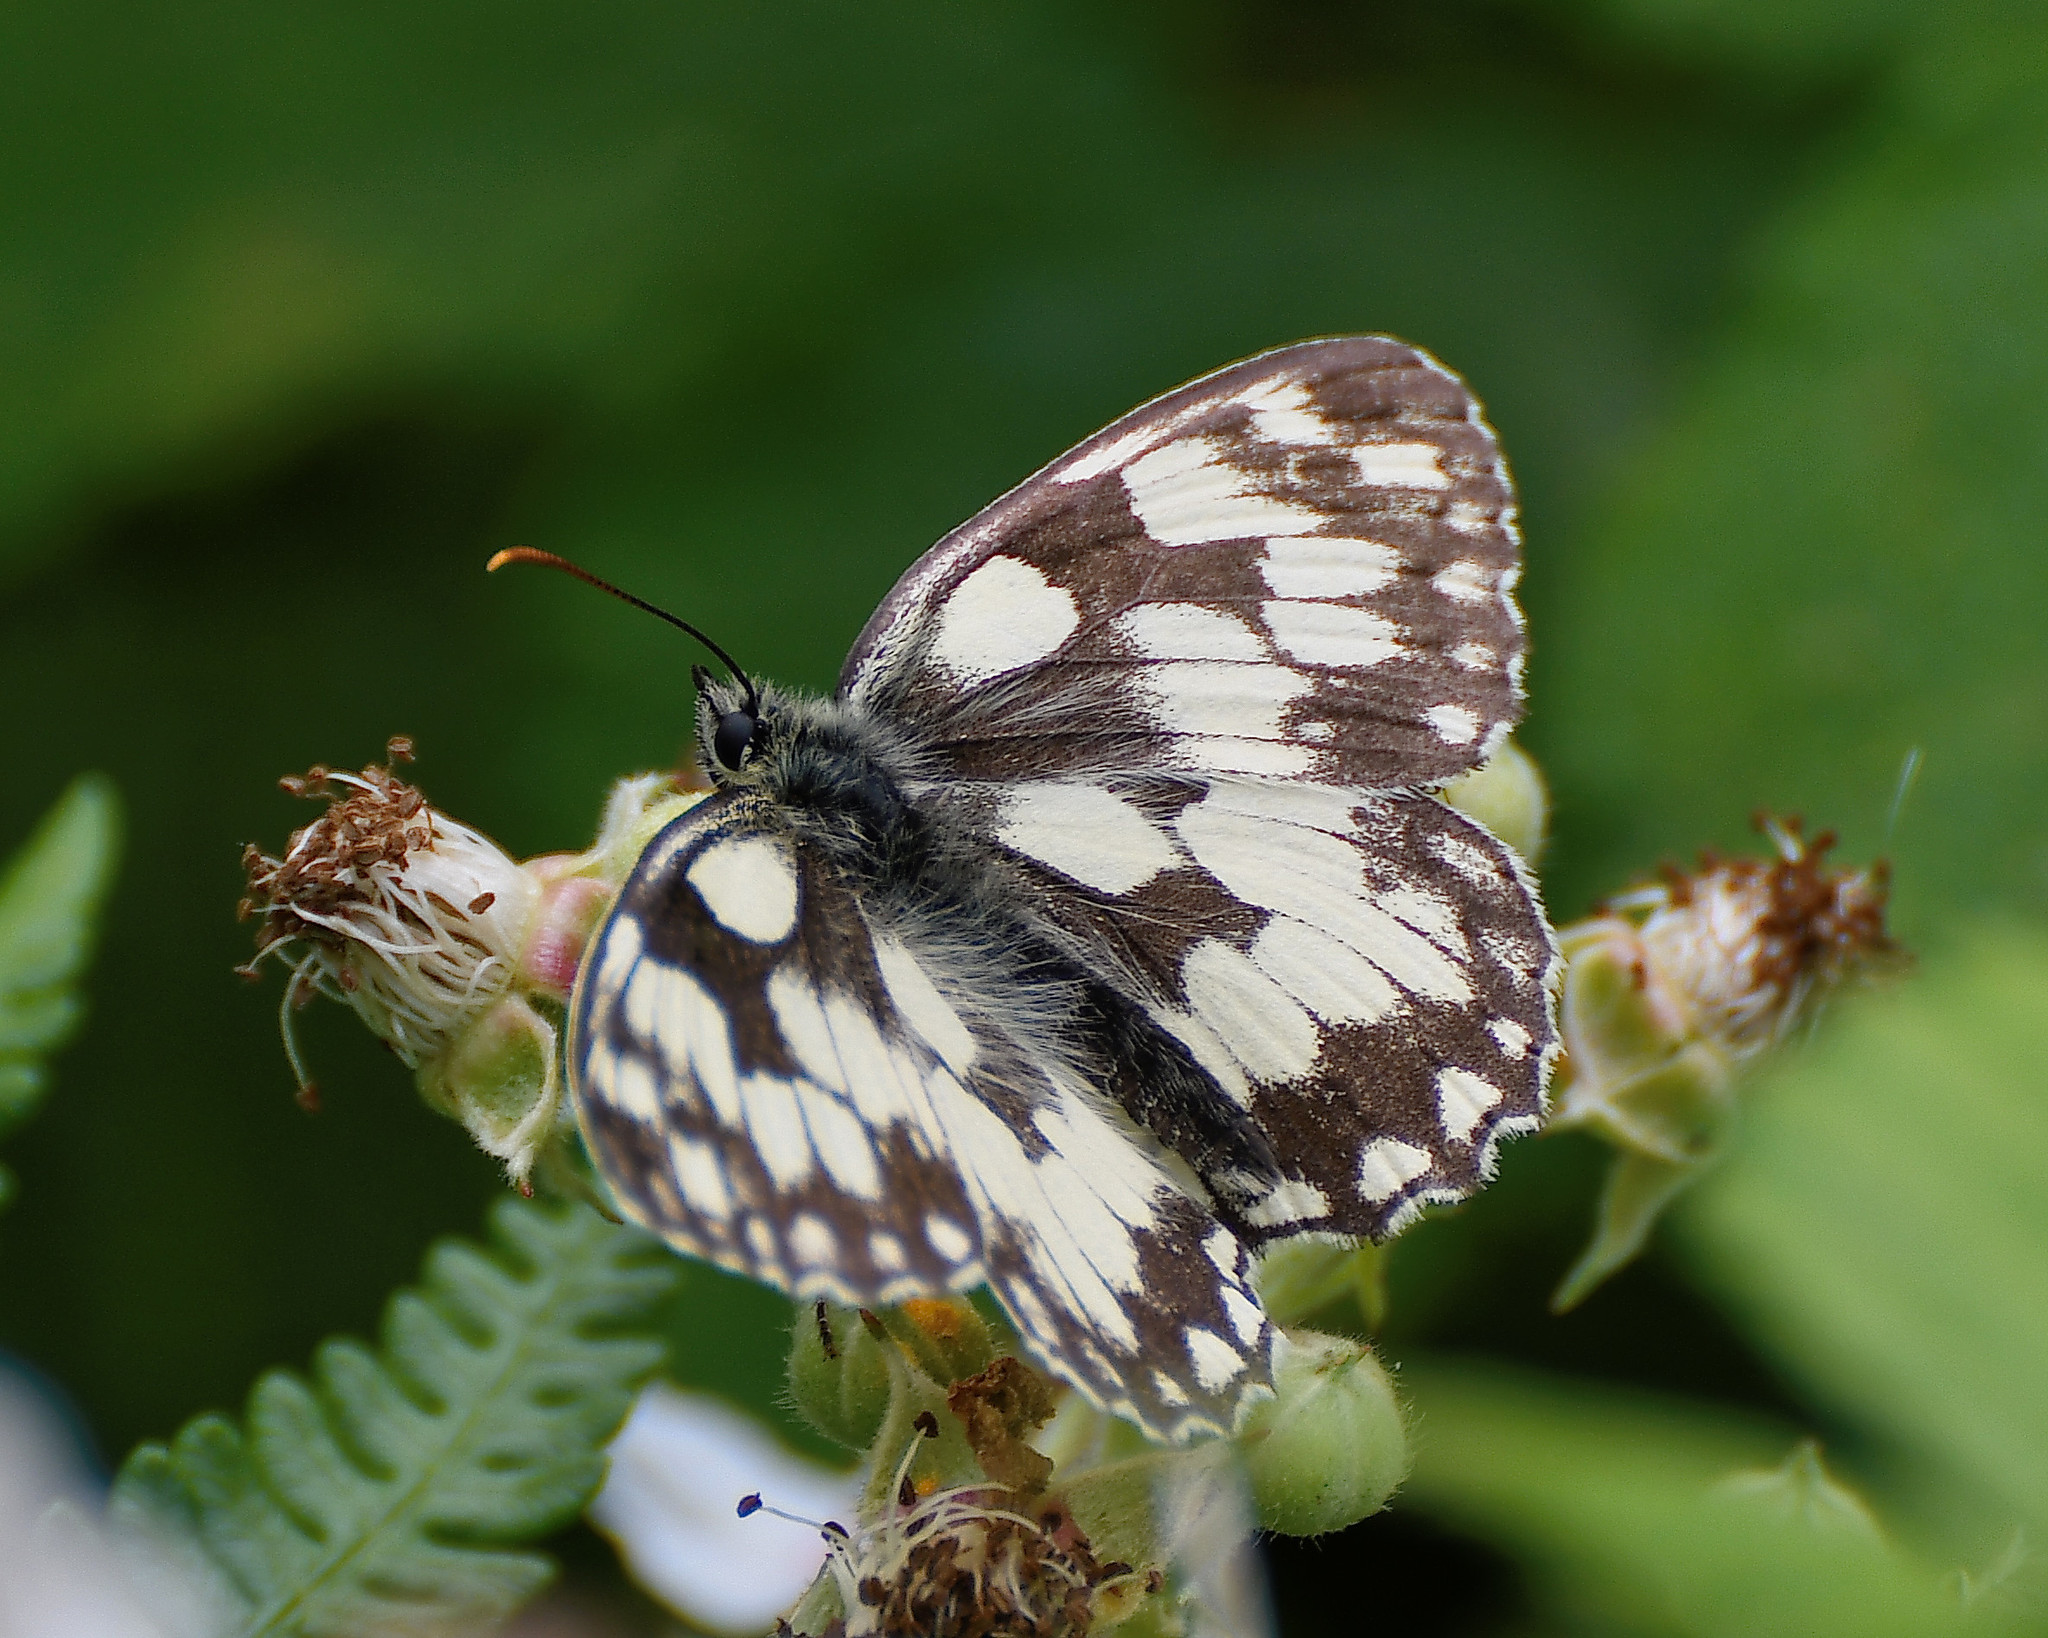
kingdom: Animalia
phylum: Arthropoda
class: Insecta
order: Lepidoptera
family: Nymphalidae
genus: Melanargia
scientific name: Melanargia galathea
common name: Marbled white
